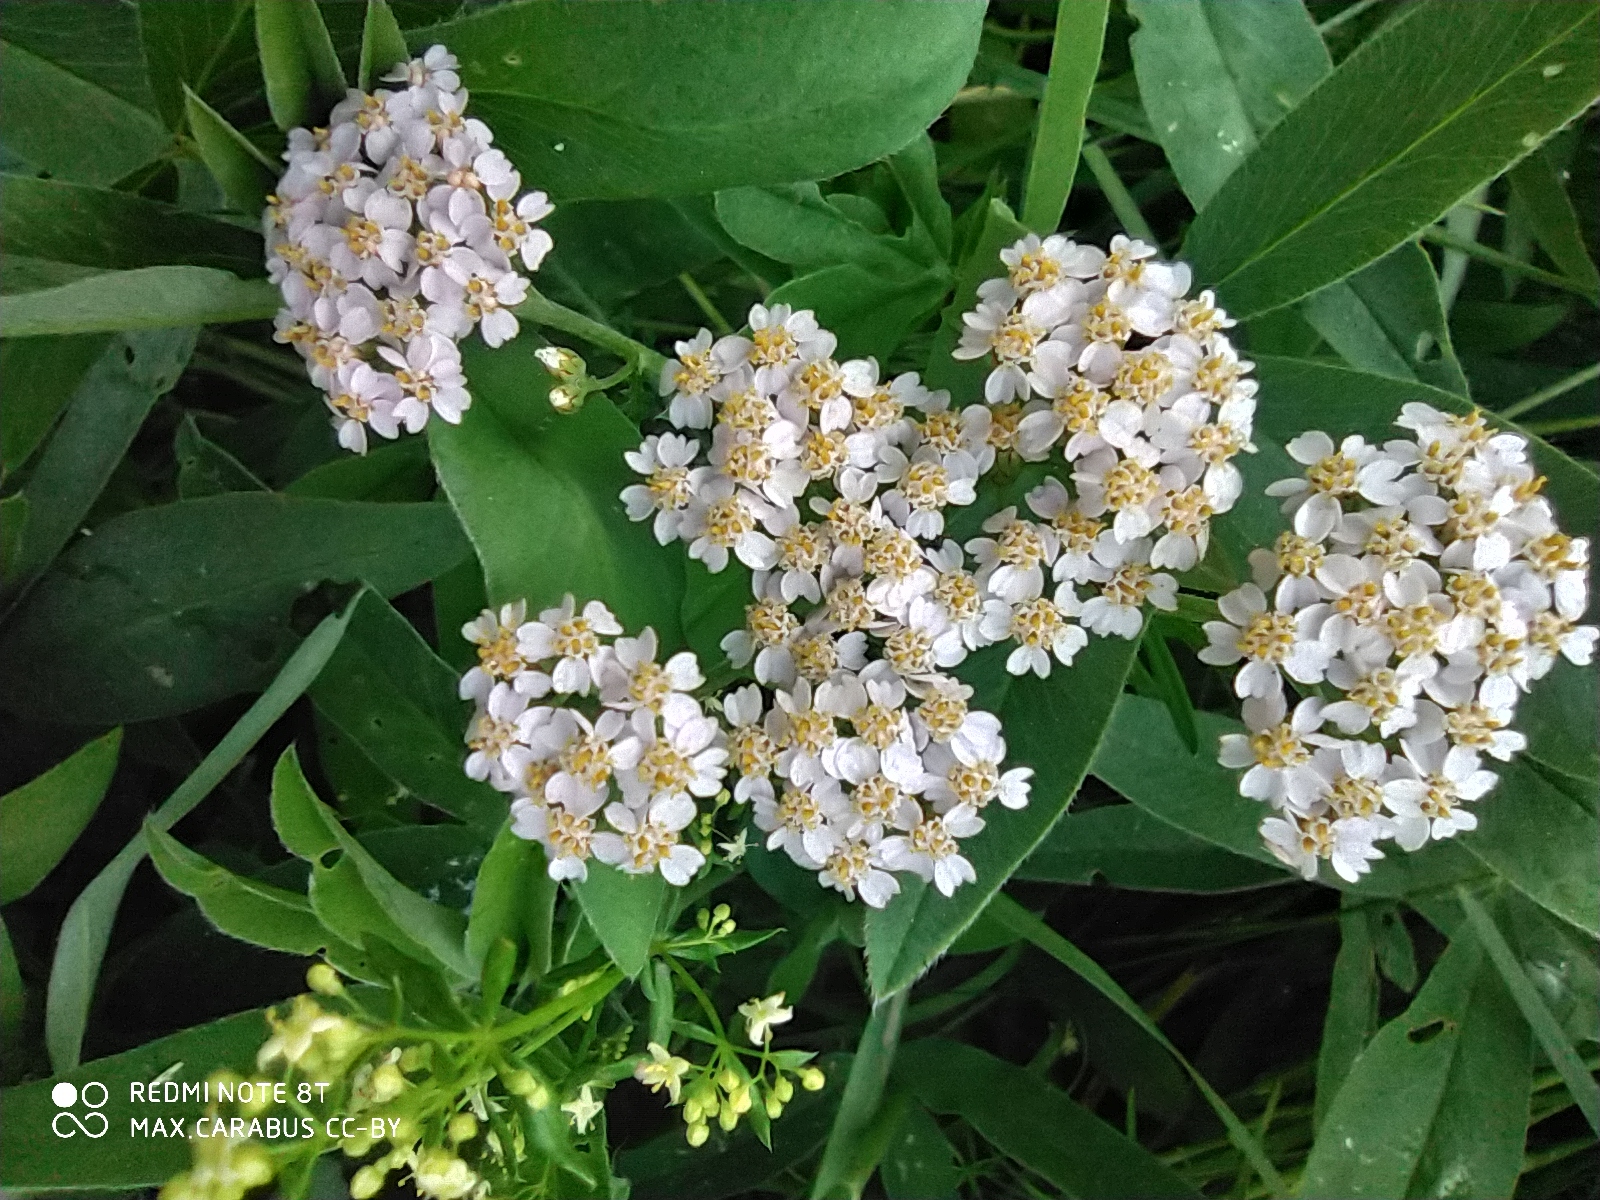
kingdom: Plantae
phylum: Tracheophyta
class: Magnoliopsida
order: Asterales
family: Asteraceae
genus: Achillea
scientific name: Achillea millefolium
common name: Yarrow
